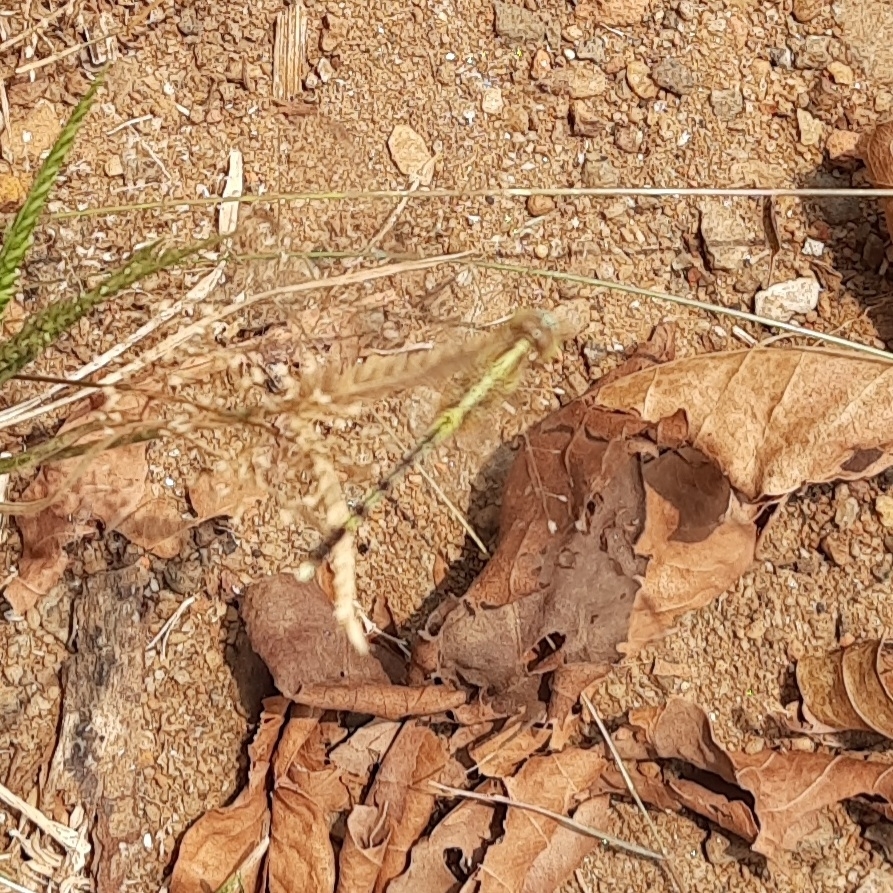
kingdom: Animalia
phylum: Arthropoda
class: Insecta
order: Odonata
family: Libellulidae
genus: Diplacodes
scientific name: Diplacodes trivialis
